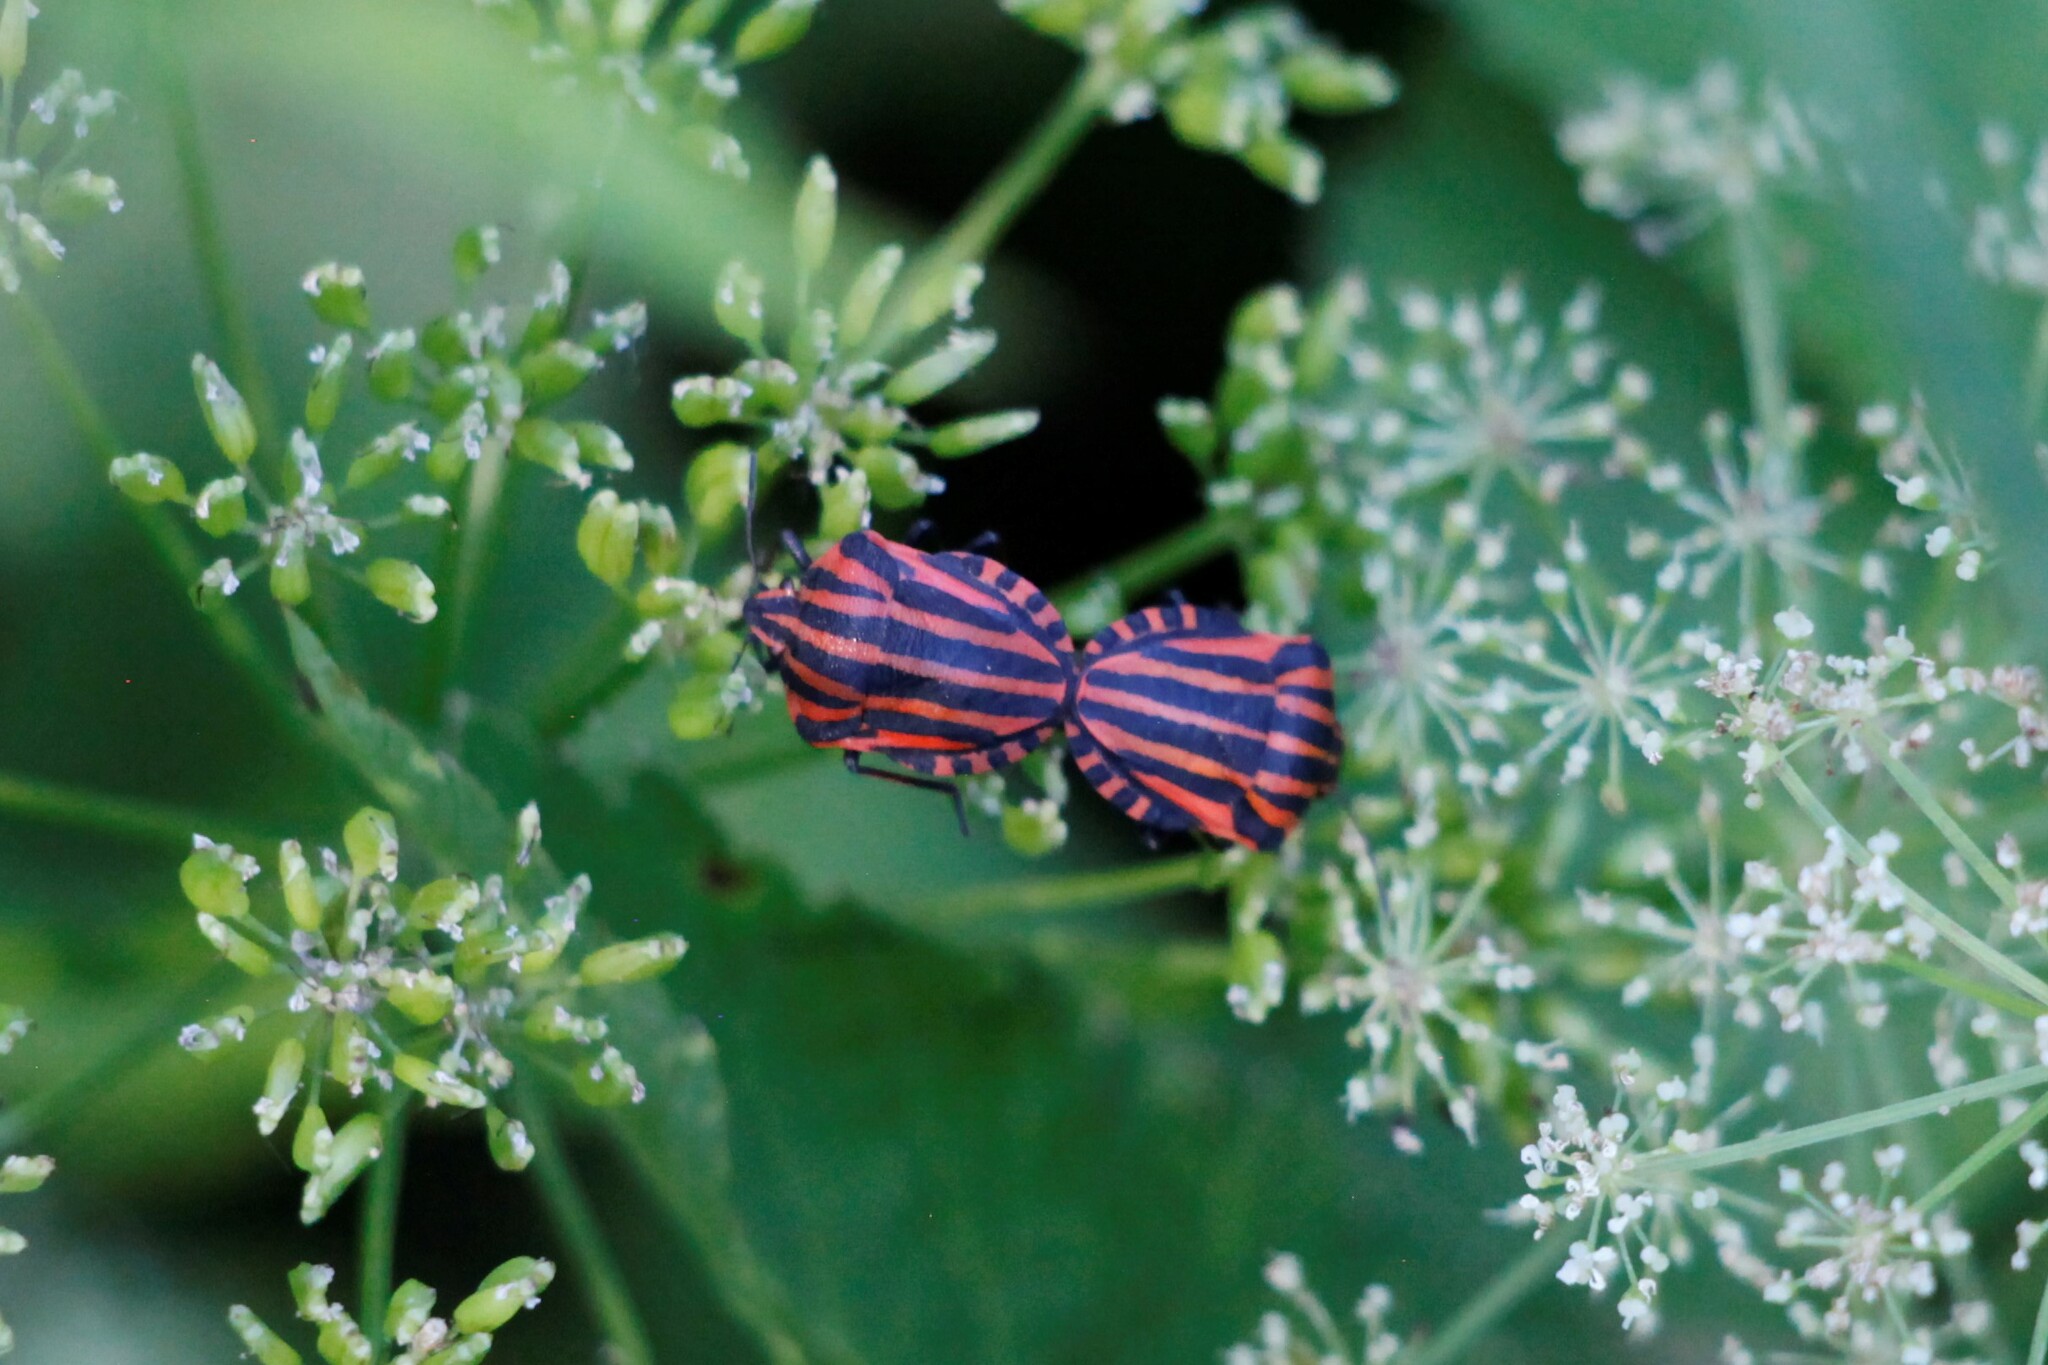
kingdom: Animalia
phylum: Arthropoda
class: Insecta
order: Hemiptera
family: Pentatomidae
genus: Graphosoma
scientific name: Graphosoma italicum
